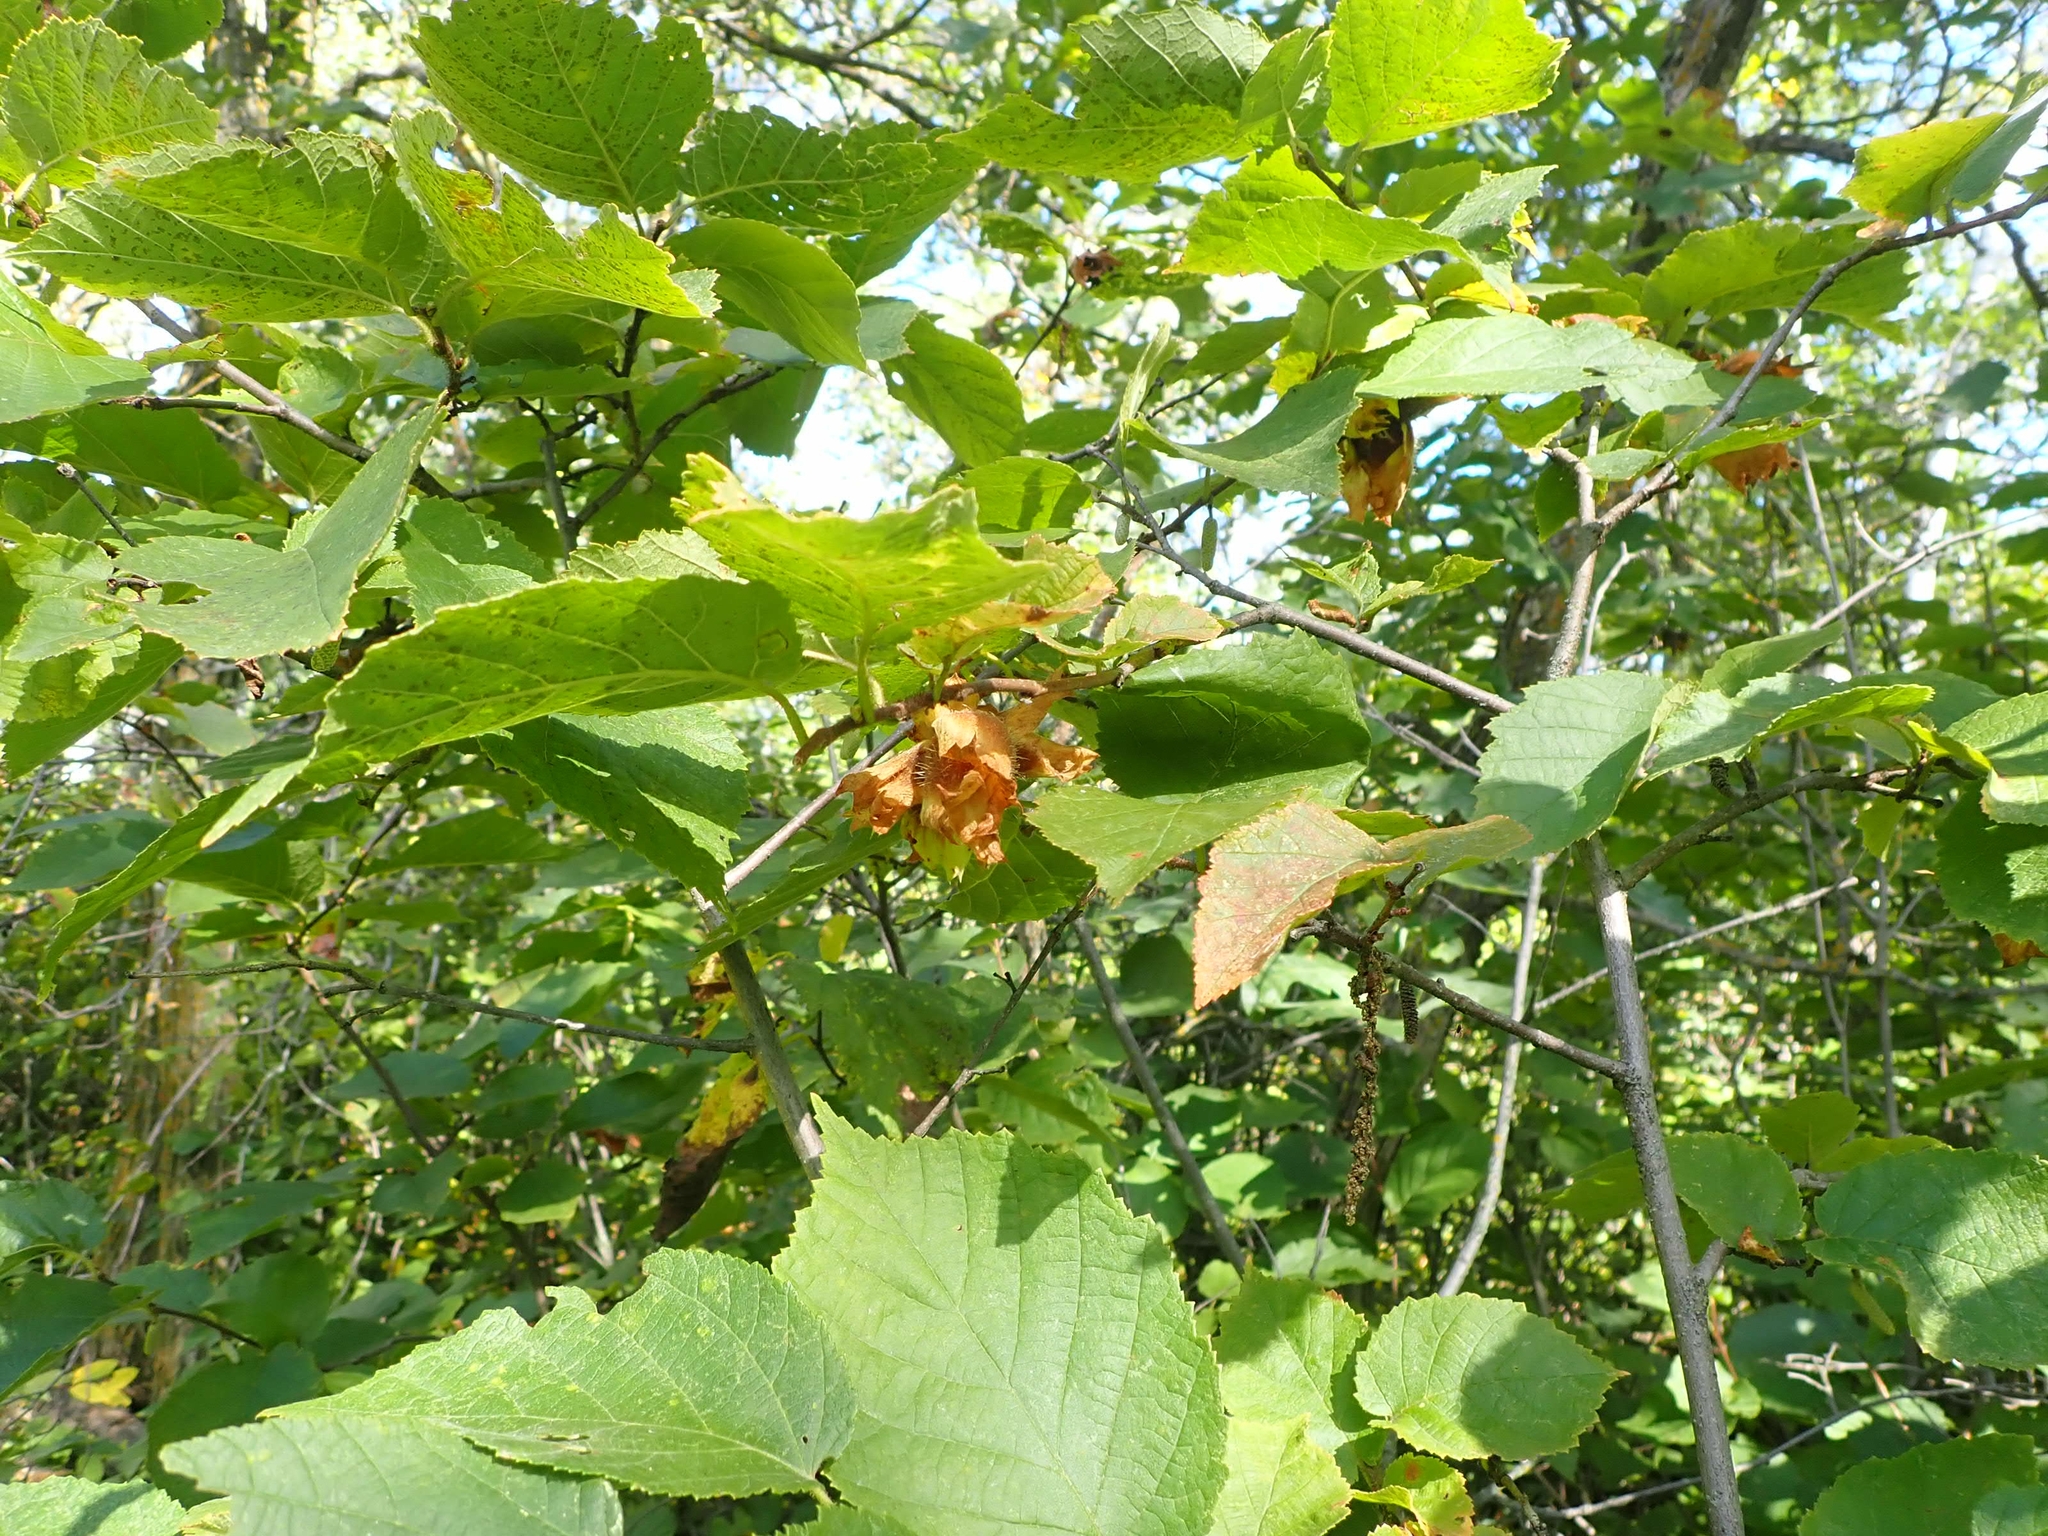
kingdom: Plantae
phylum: Tracheophyta
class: Magnoliopsida
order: Fagales
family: Betulaceae
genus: Corylus
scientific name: Corylus americana
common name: American hazel
